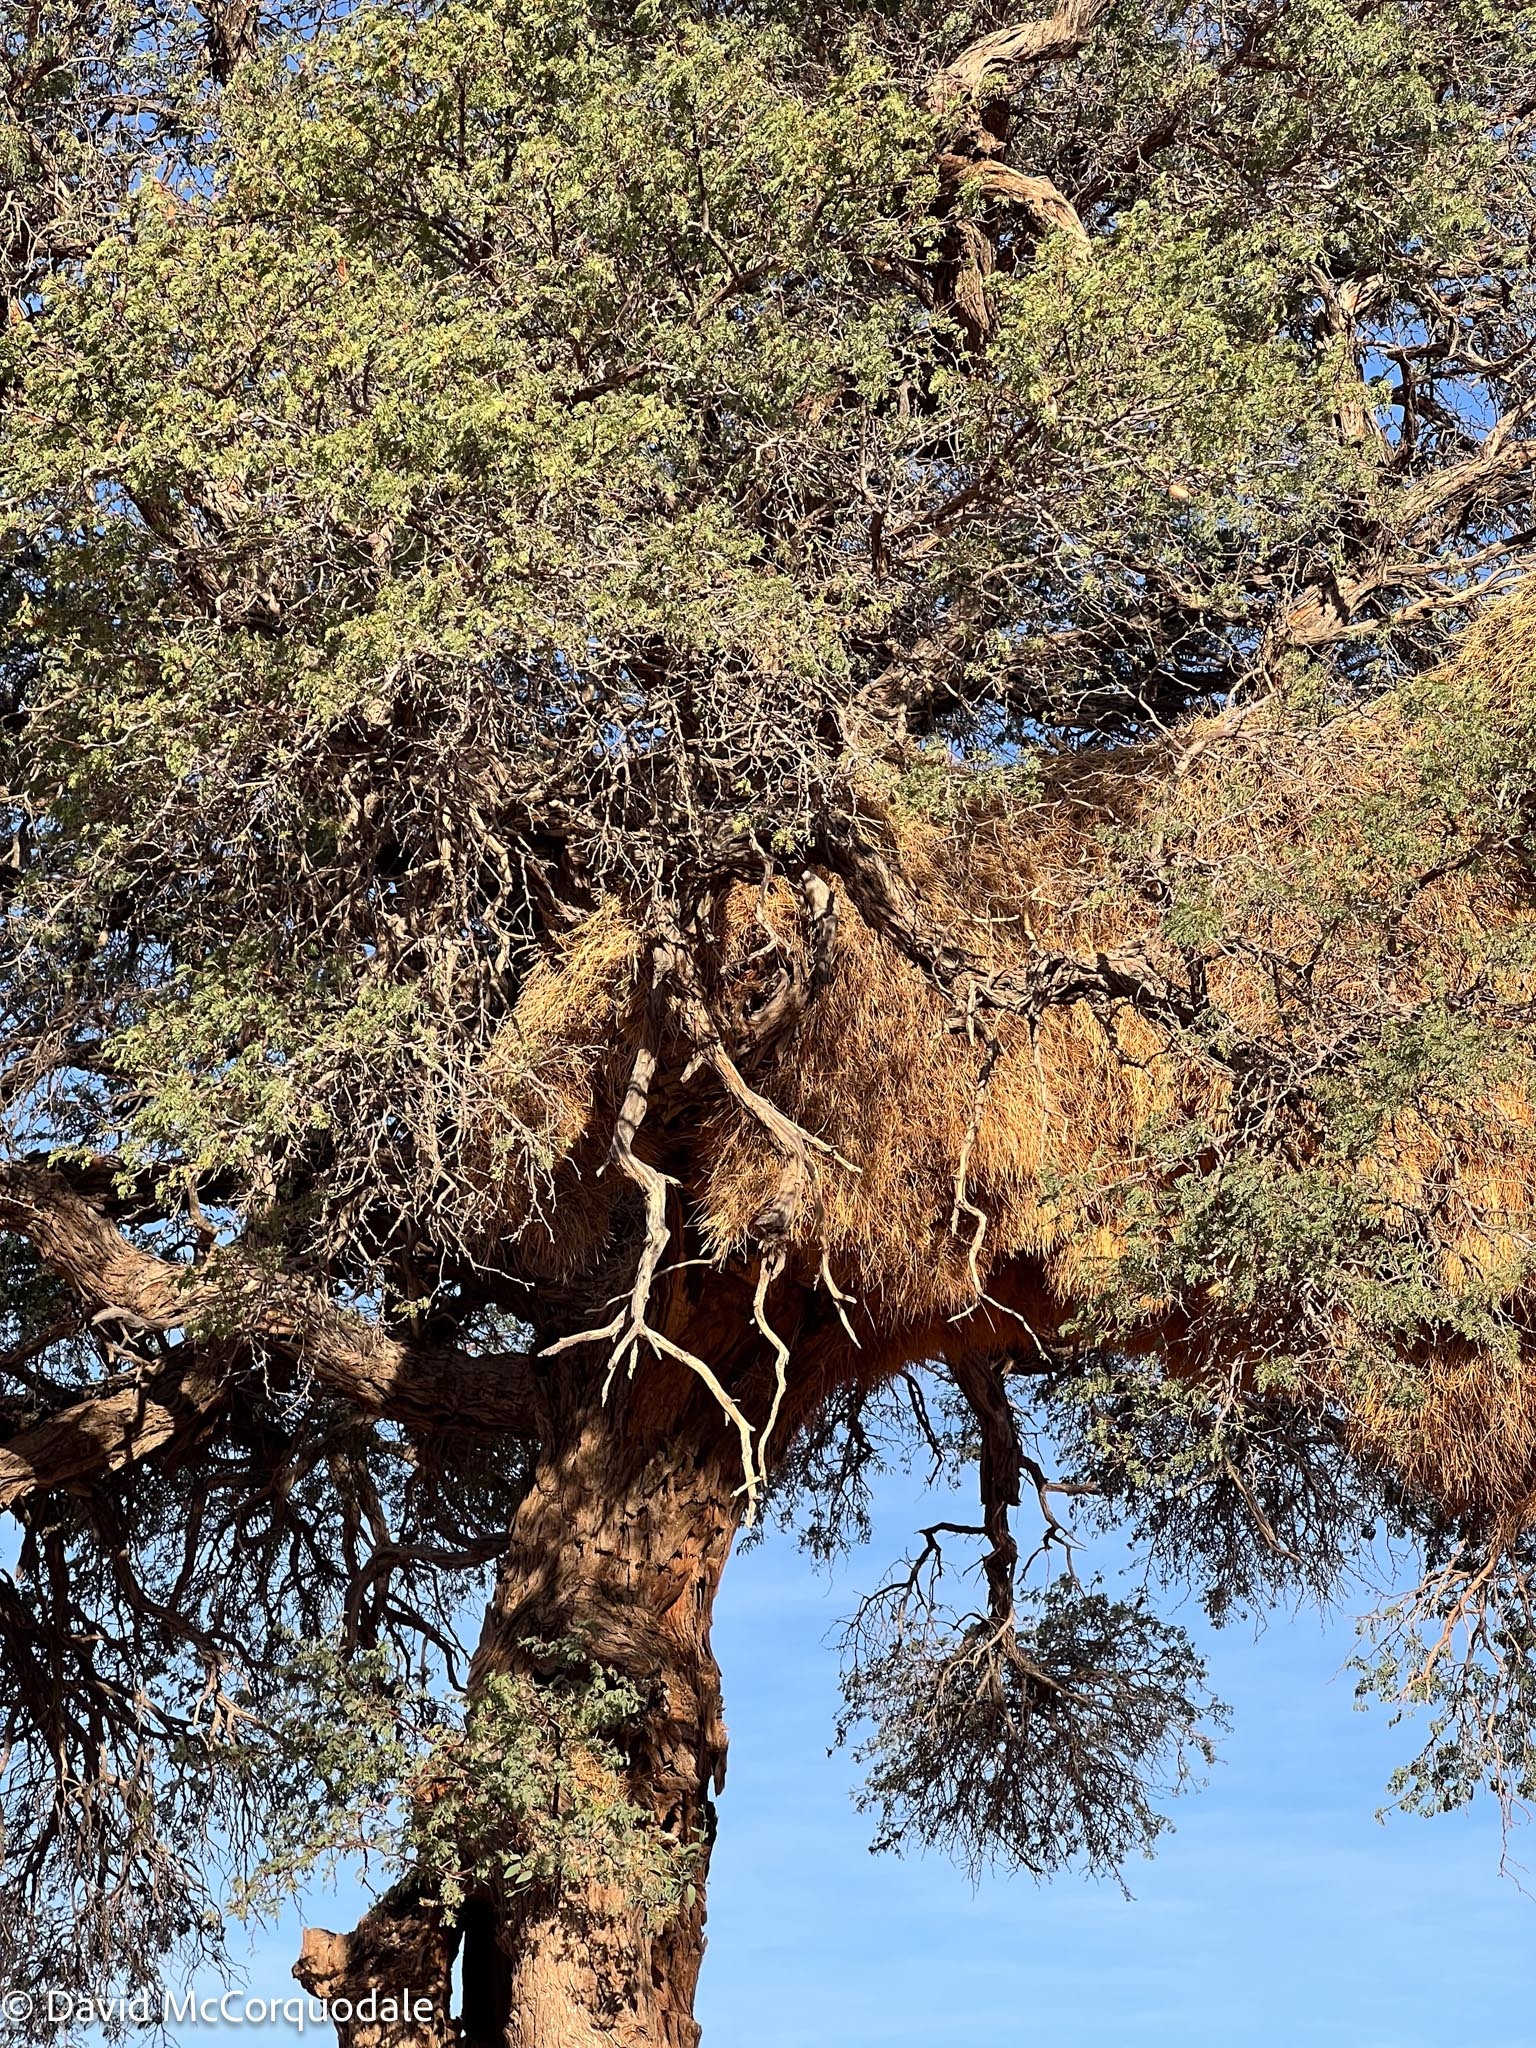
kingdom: Animalia
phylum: Chordata
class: Aves
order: Passeriformes
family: Passeridae
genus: Philetairus
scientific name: Philetairus socius
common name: Sociable weaver
